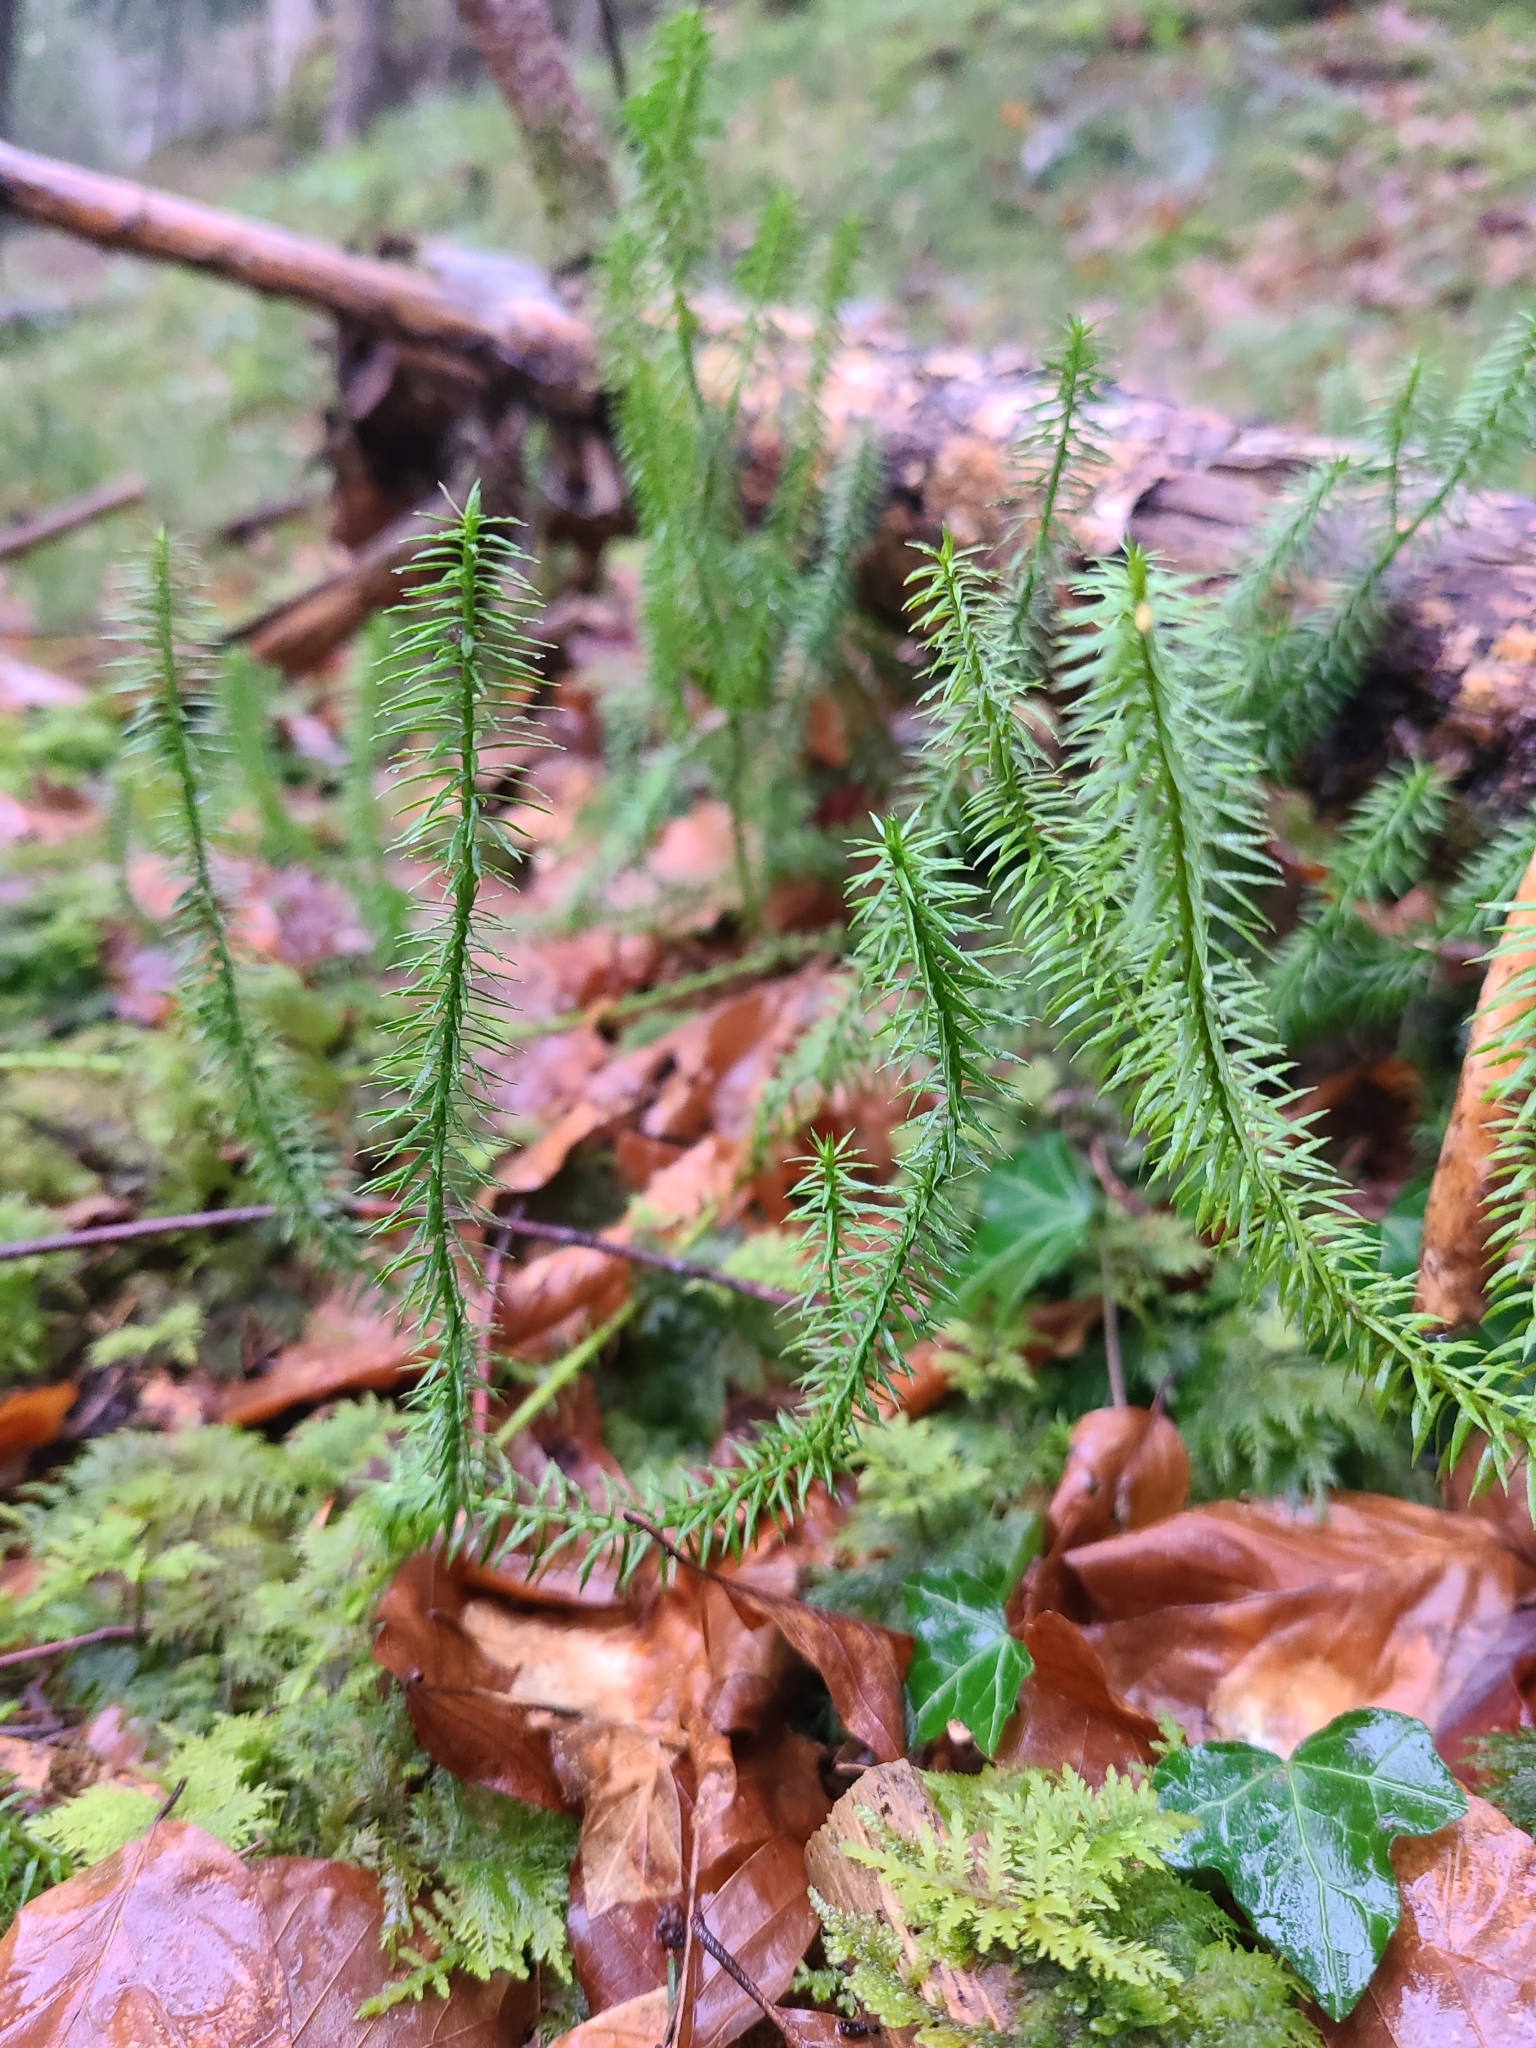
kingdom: Plantae
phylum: Tracheophyta
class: Lycopodiopsida
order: Lycopodiales
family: Lycopodiaceae
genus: Spinulum
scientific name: Spinulum annotinum
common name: Interrupted club-moss
